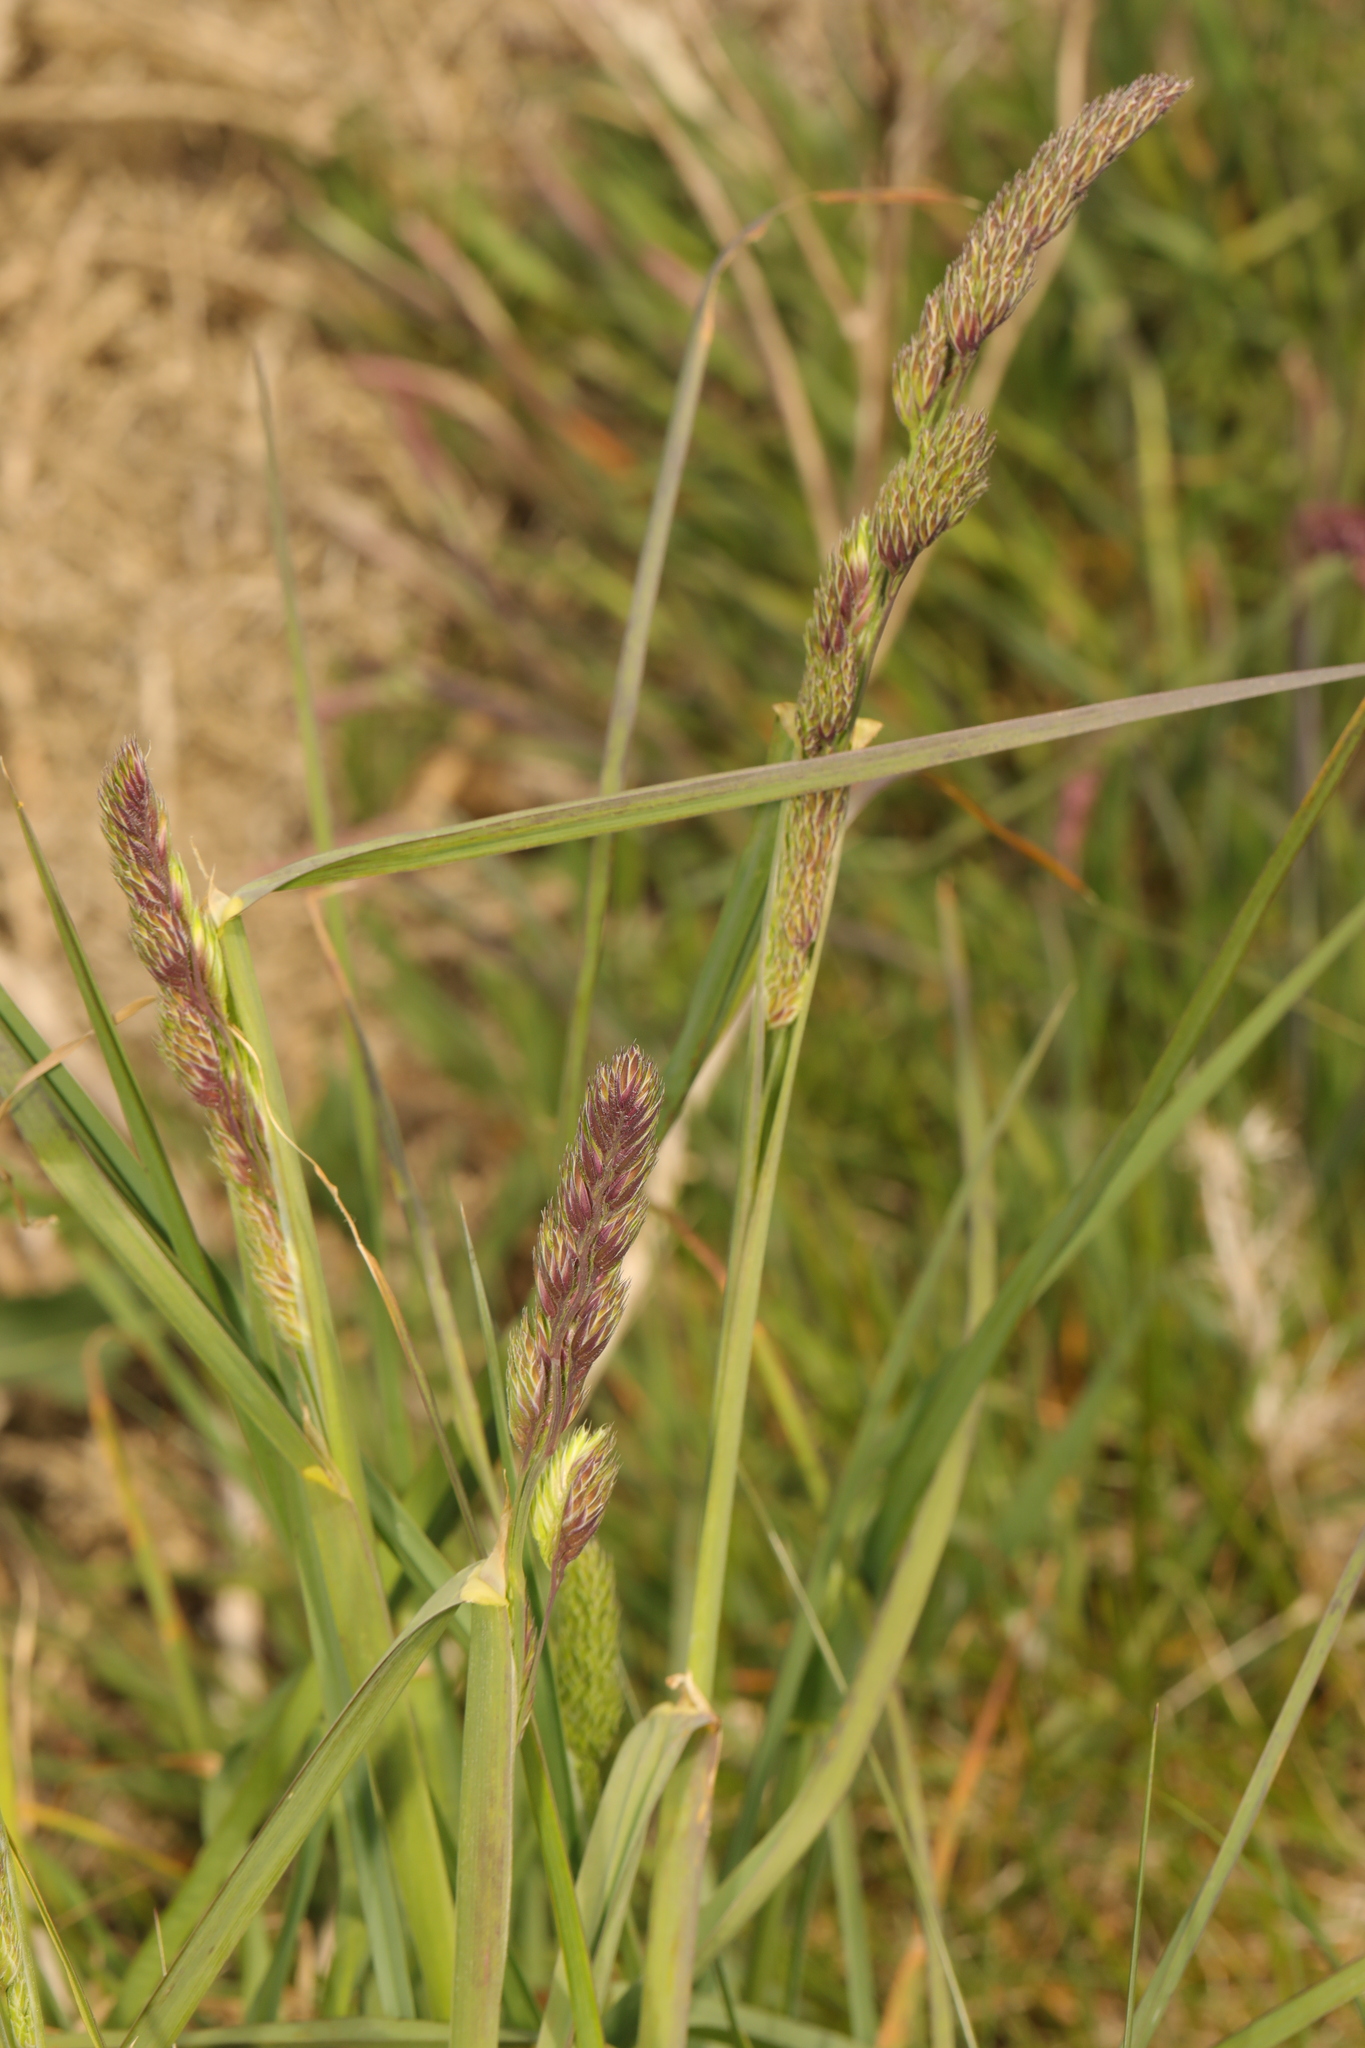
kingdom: Plantae
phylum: Tracheophyta
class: Liliopsida
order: Poales
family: Poaceae
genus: Dactylis
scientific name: Dactylis glomerata
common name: Orchardgrass
